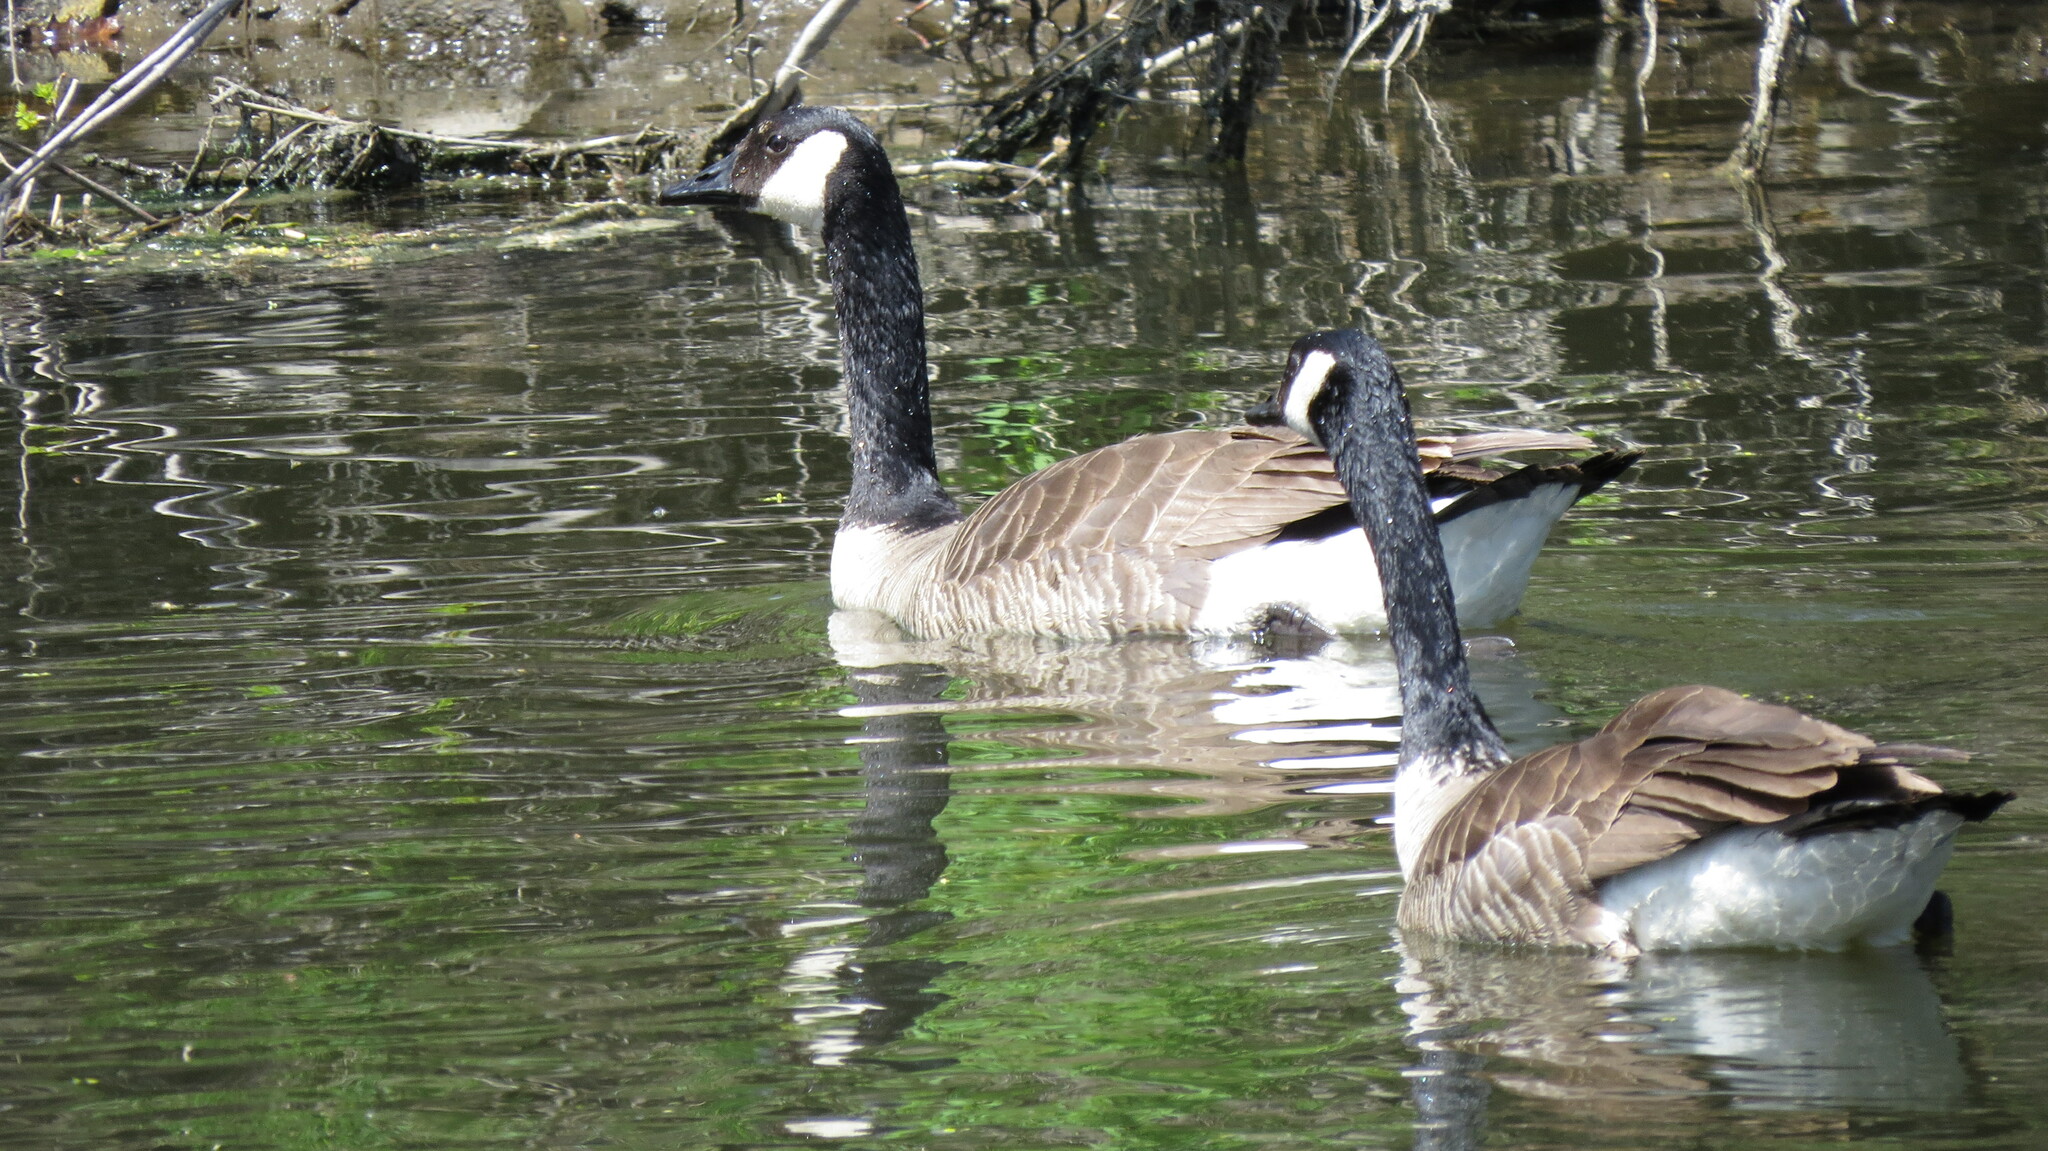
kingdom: Animalia
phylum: Chordata
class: Aves
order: Anseriformes
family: Anatidae
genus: Branta
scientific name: Branta canadensis
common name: Canada goose
